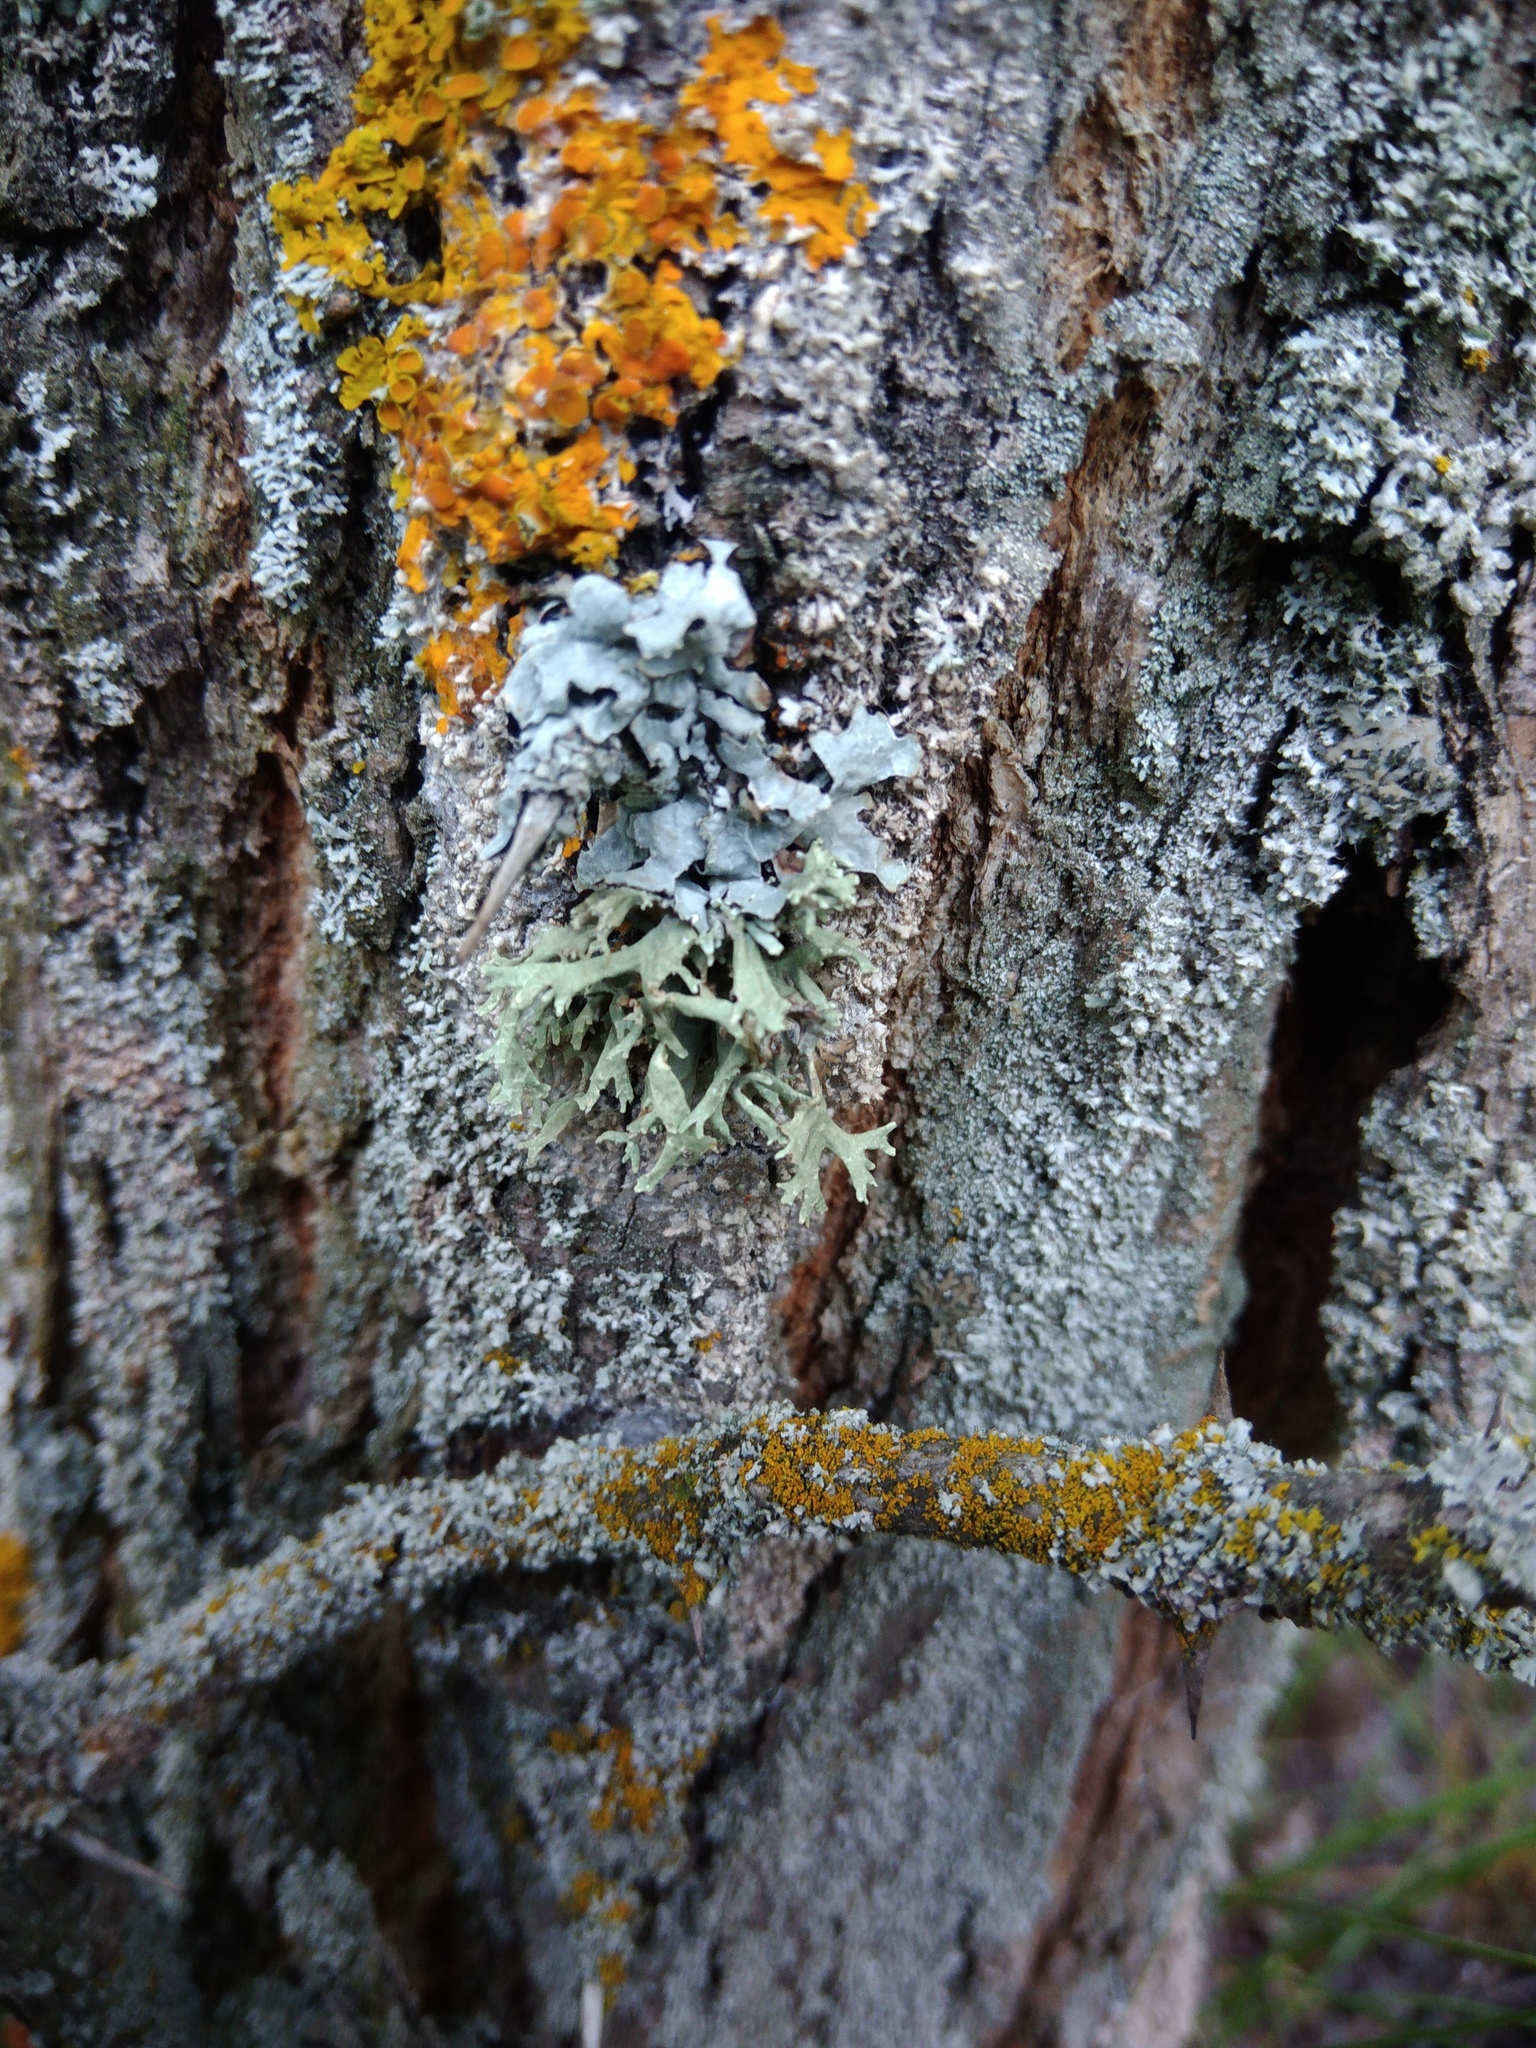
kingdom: Fungi
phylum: Ascomycota
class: Lecanoromycetes
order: Lecanorales
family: Parmeliaceae
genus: Evernia
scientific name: Evernia prunastri
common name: Oak moss
